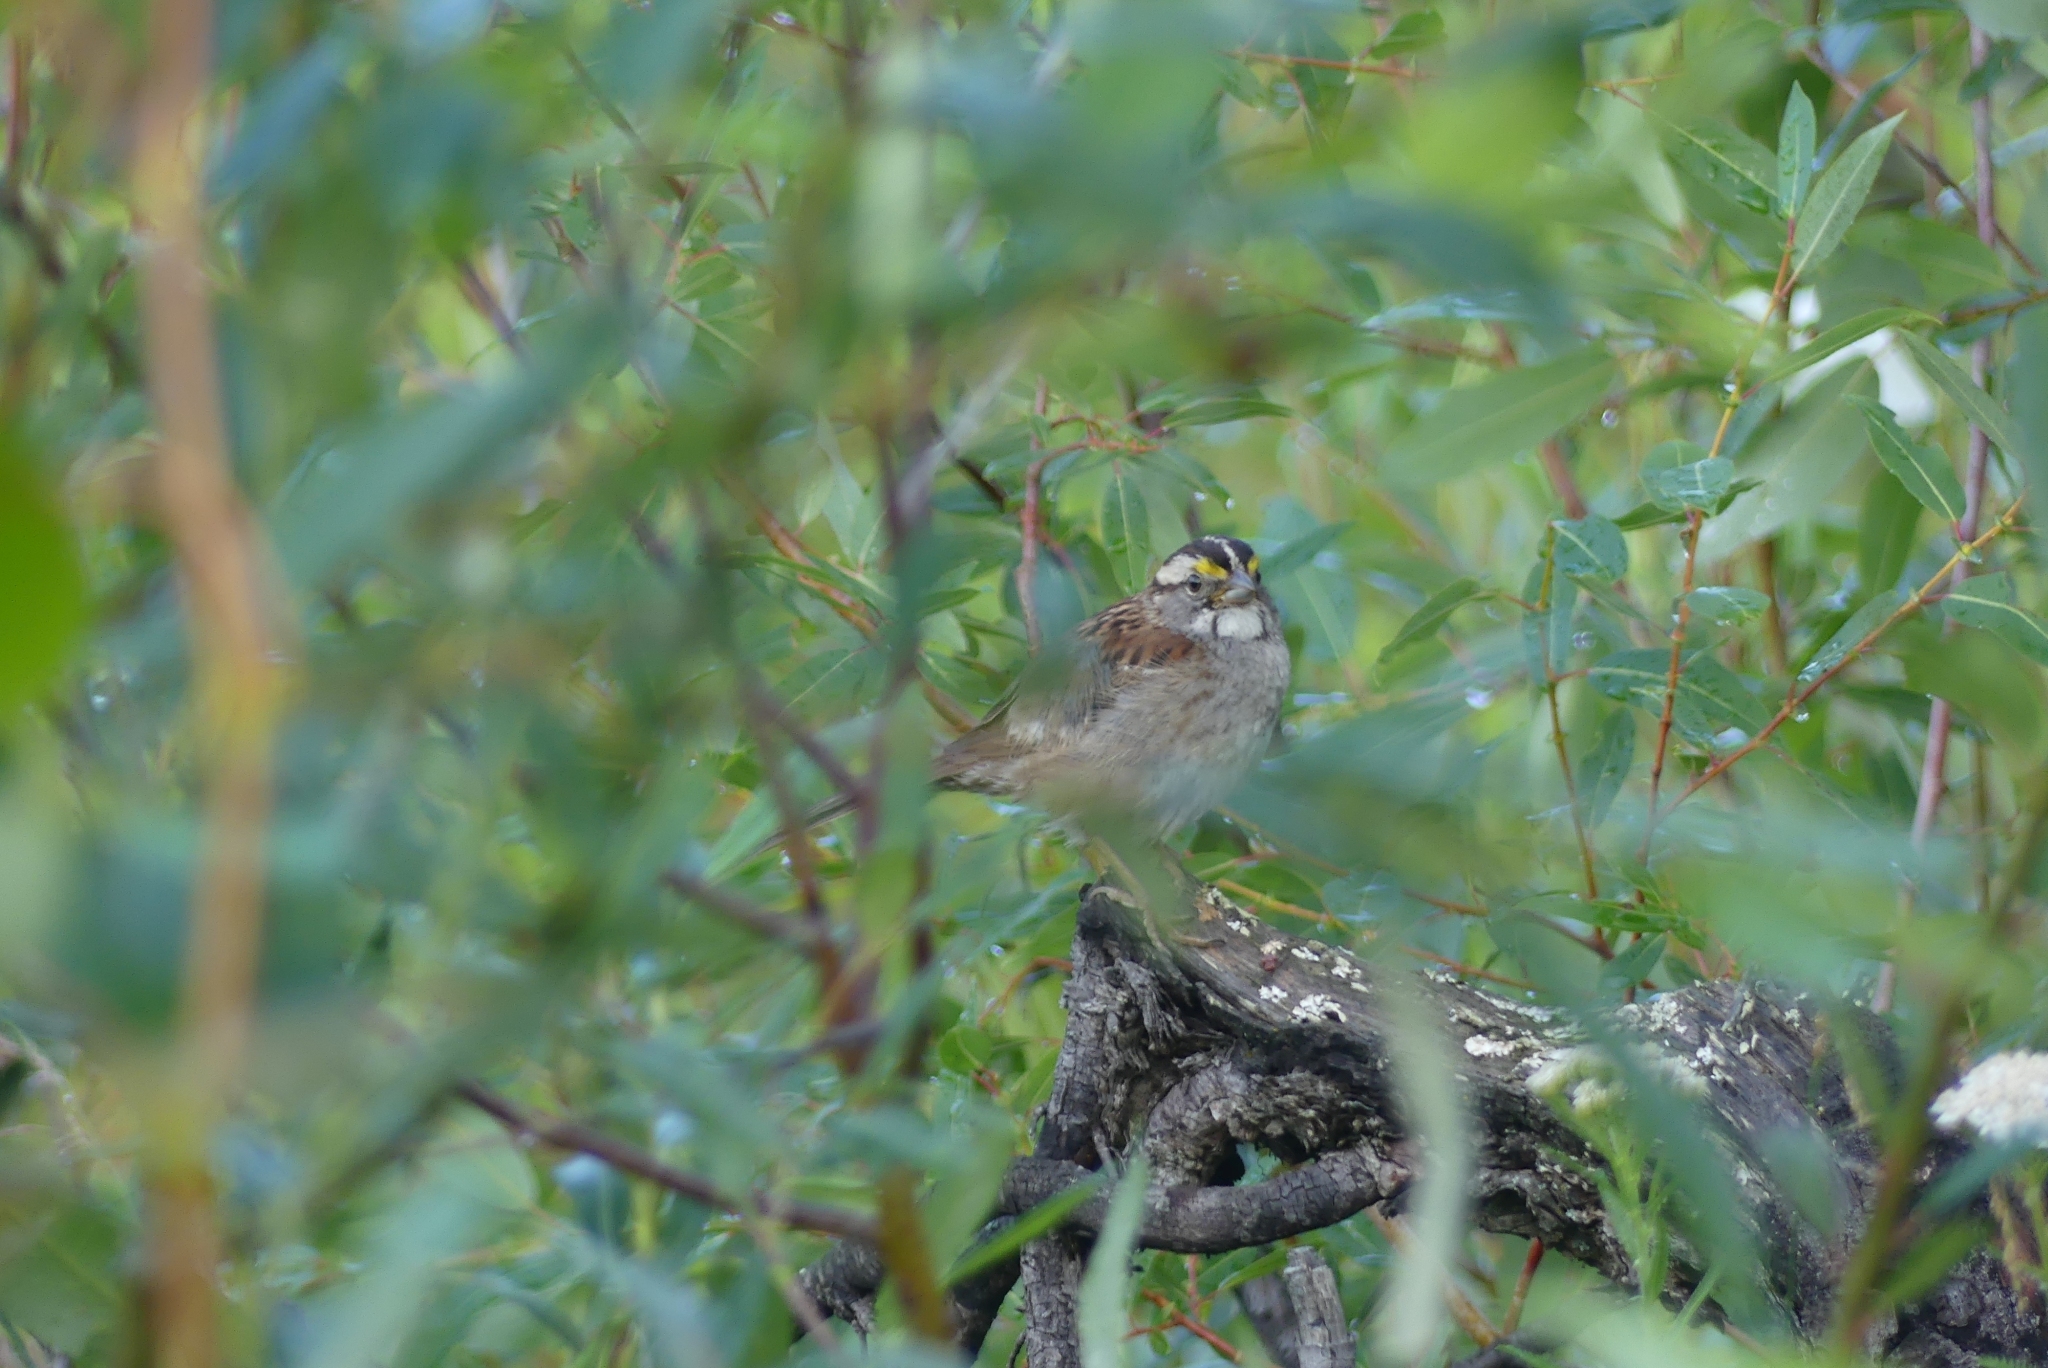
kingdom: Animalia
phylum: Chordata
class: Aves
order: Passeriformes
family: Passerellidae
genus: Zonotrichia
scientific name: Zonotrichia albicollis
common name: White-throated sparrow
